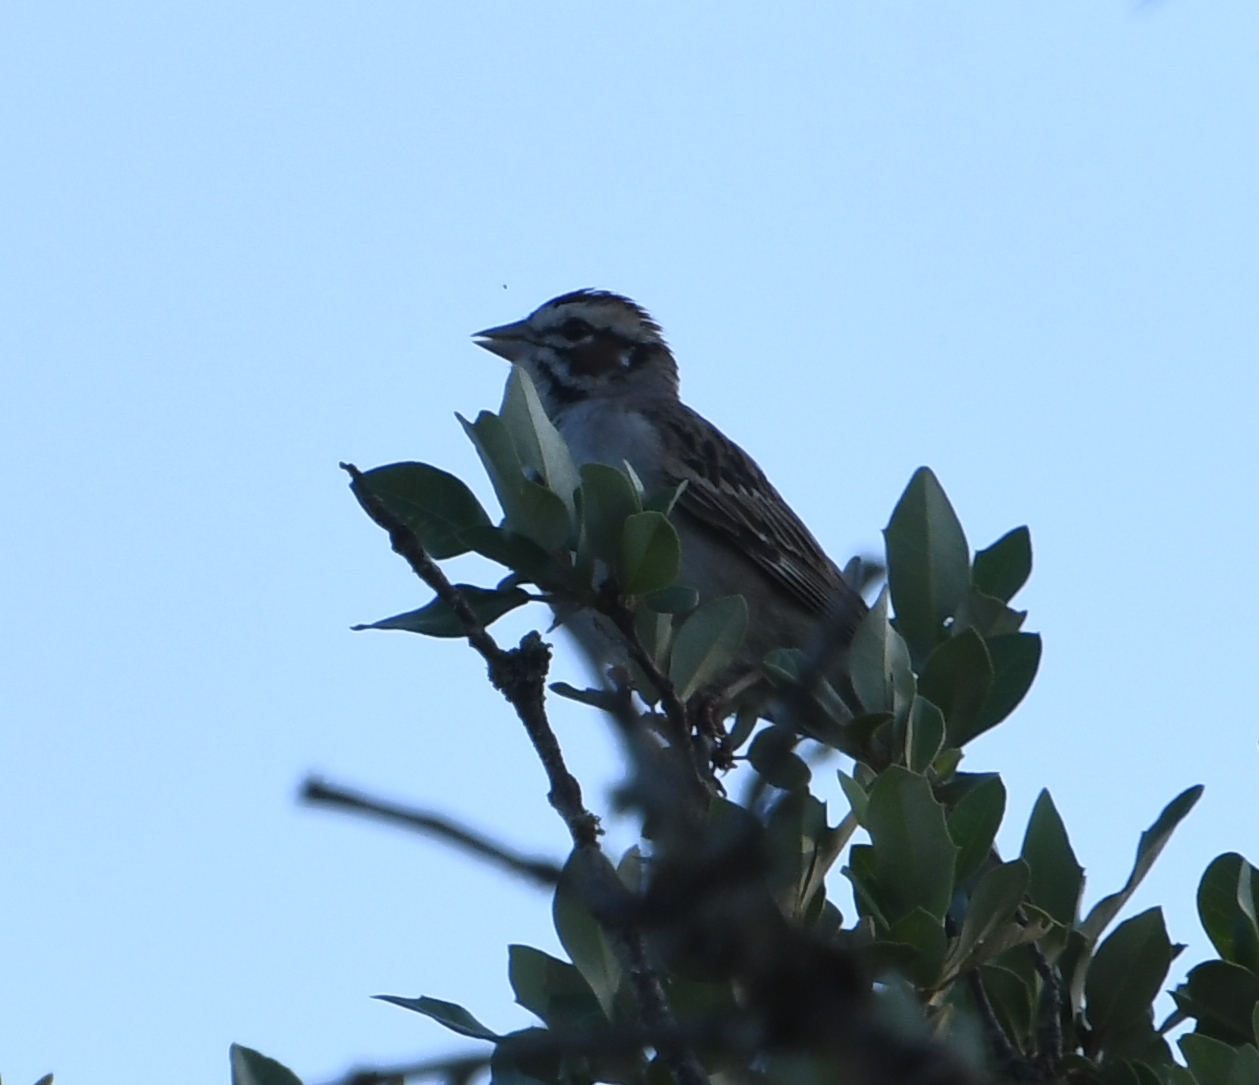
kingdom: Animalia
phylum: Chordata
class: Aves
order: Passeriformes
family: Passerellidae
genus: Chondestes
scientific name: Chondestes grammacus
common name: Lark sparrow
